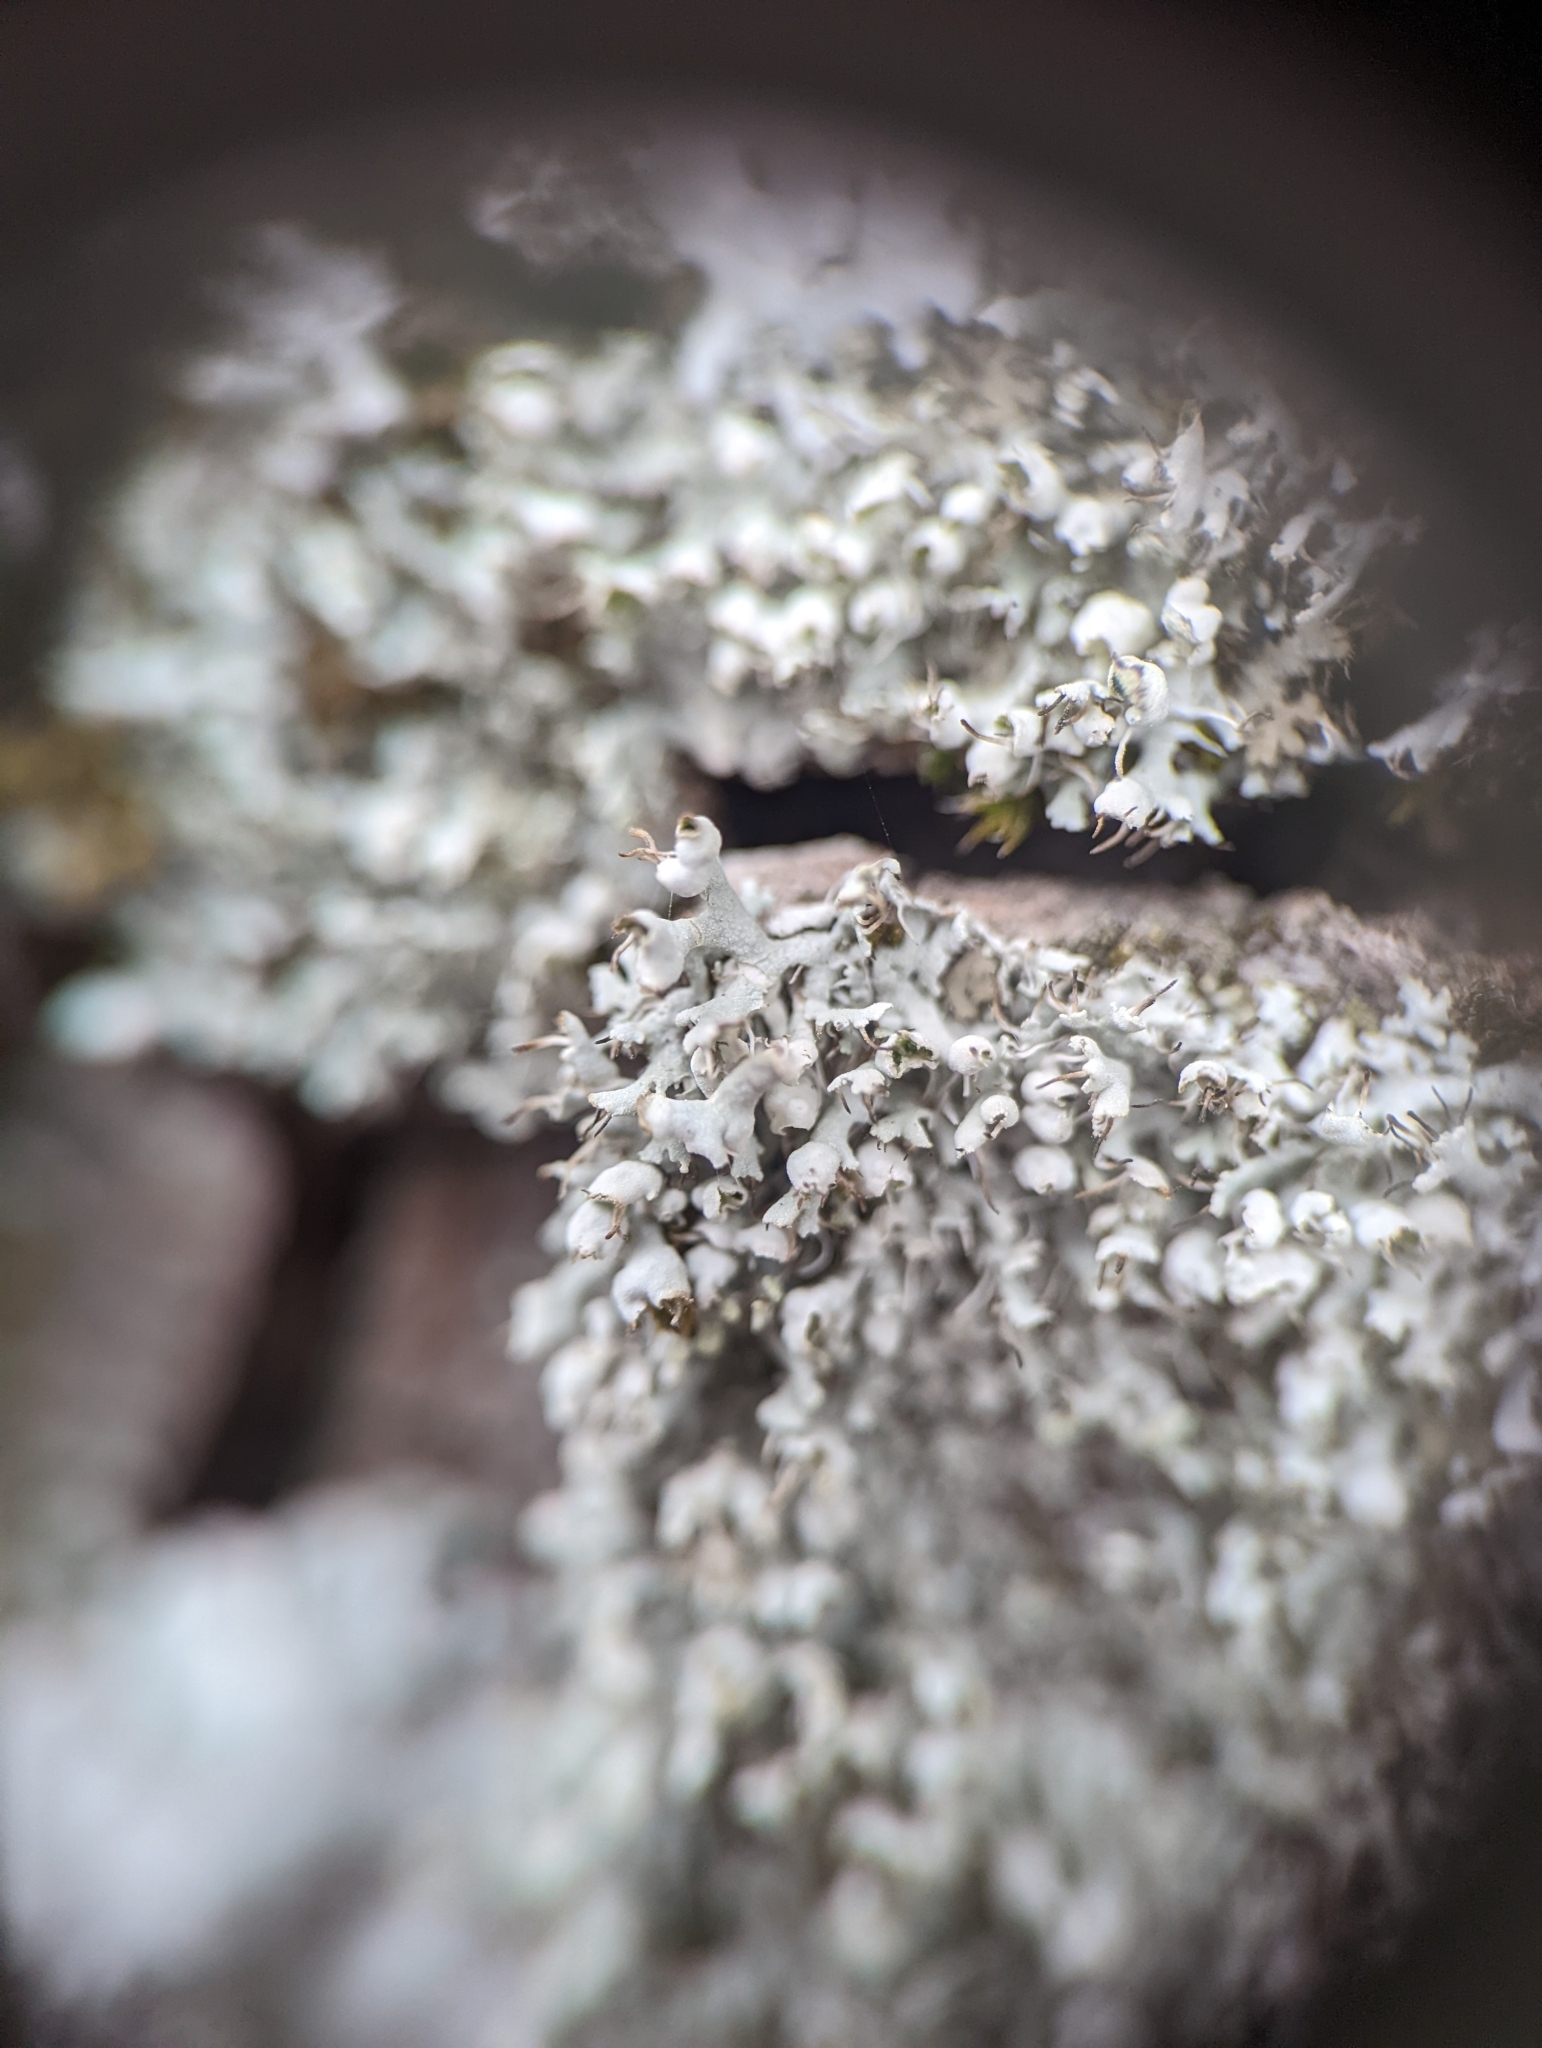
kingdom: Fungi
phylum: Ascomycota
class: Lecanoromycetes
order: Caliciales
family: Physciaceae
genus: Physcia
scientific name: Physcia adscendens
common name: Hooded rosette lichen
